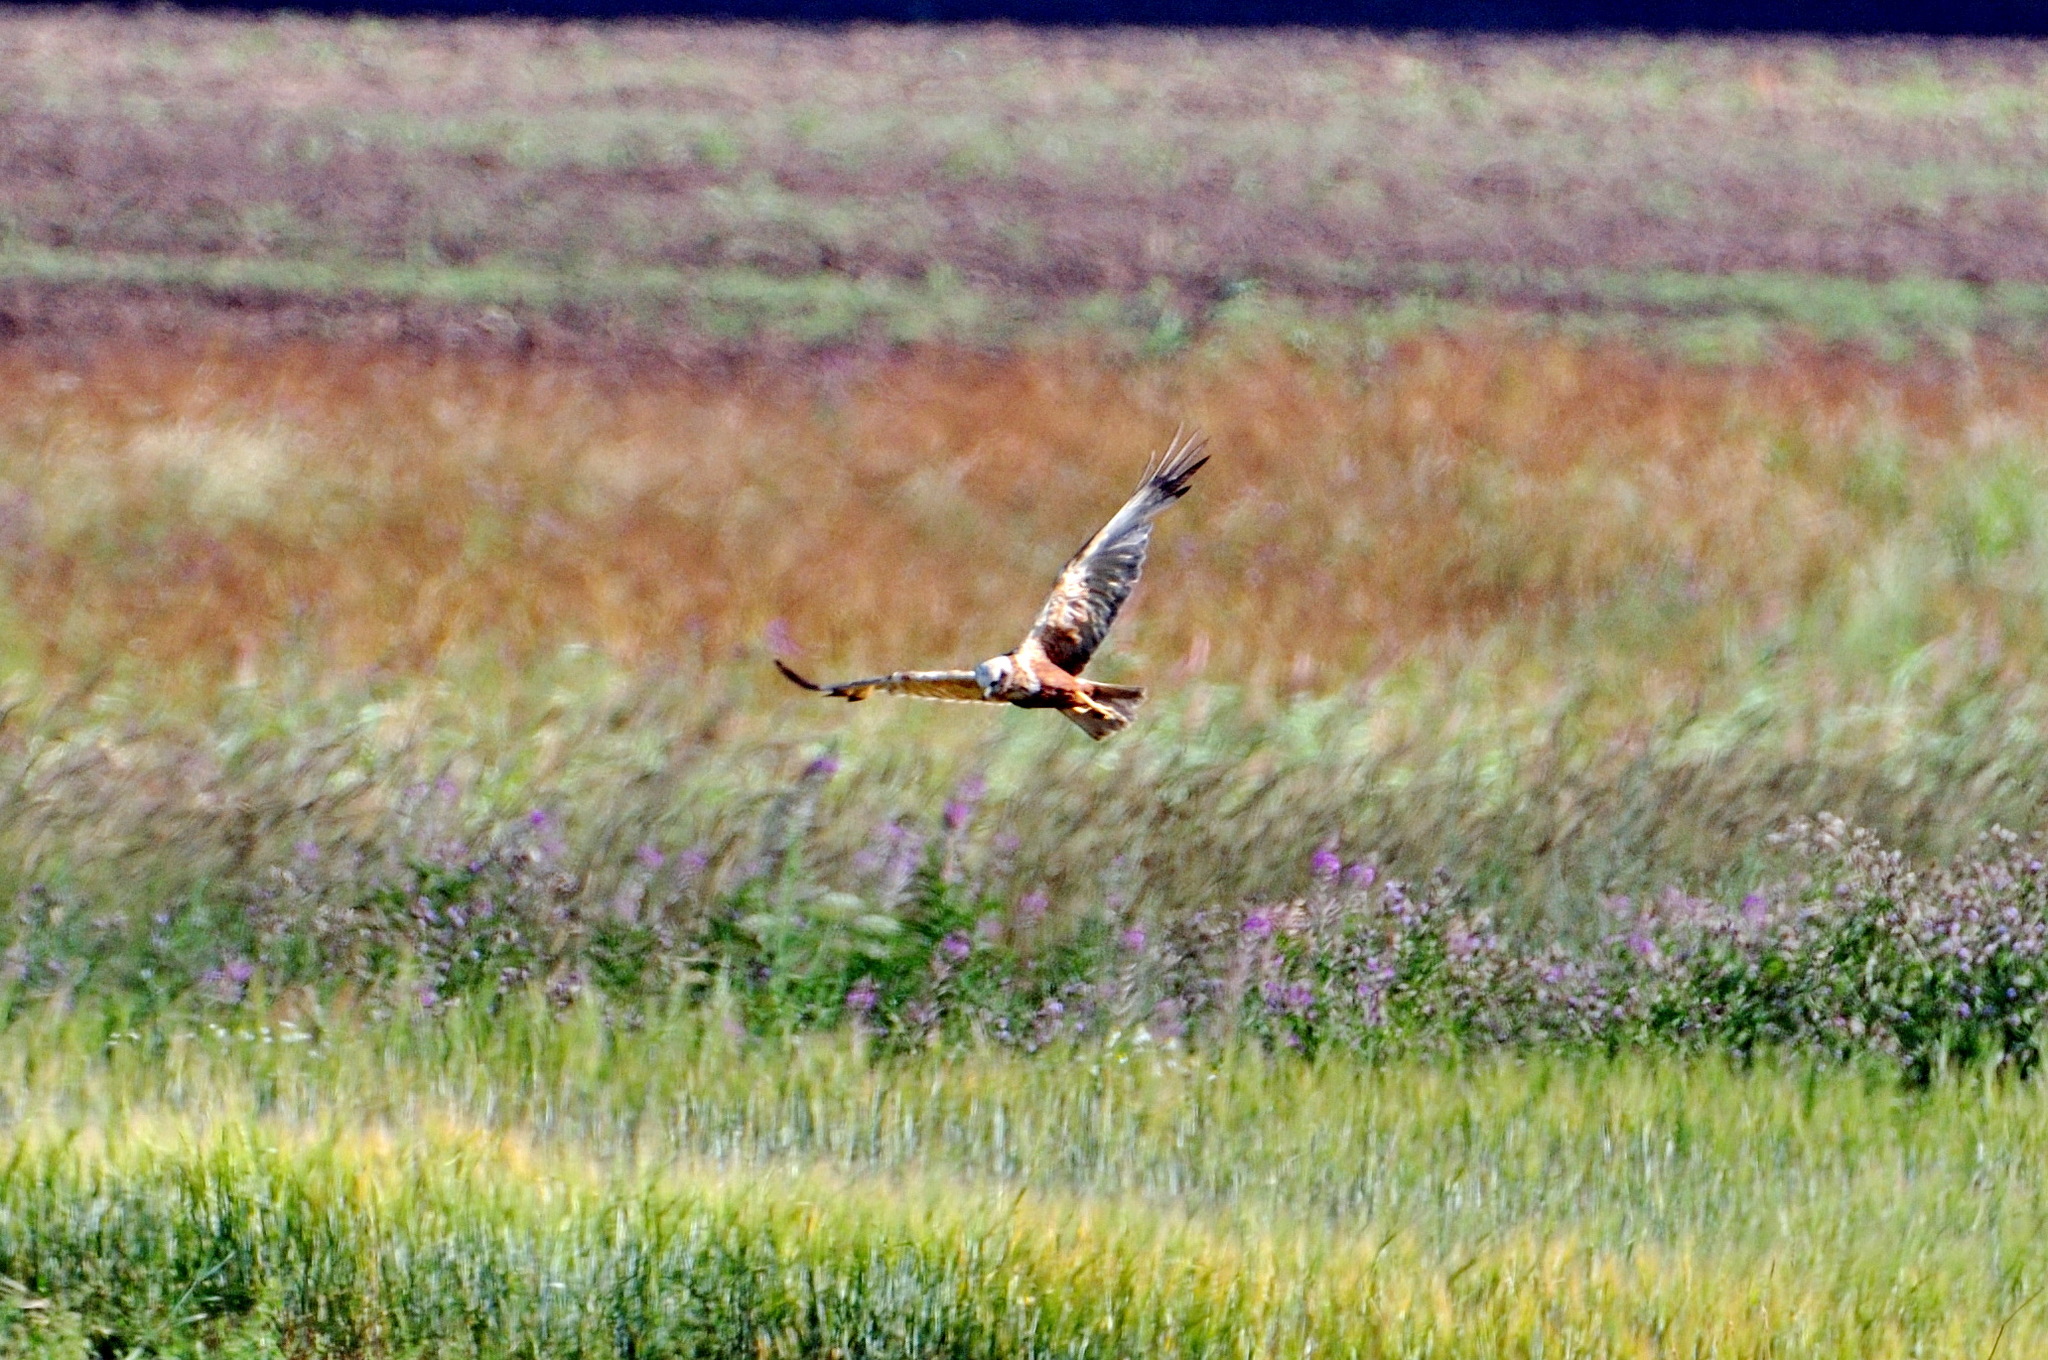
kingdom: Animalia
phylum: Chordata
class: Aves
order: Accipitriformes
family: Accipitridae
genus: Circus
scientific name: Circus aeruginosus
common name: Western marsh harrier
